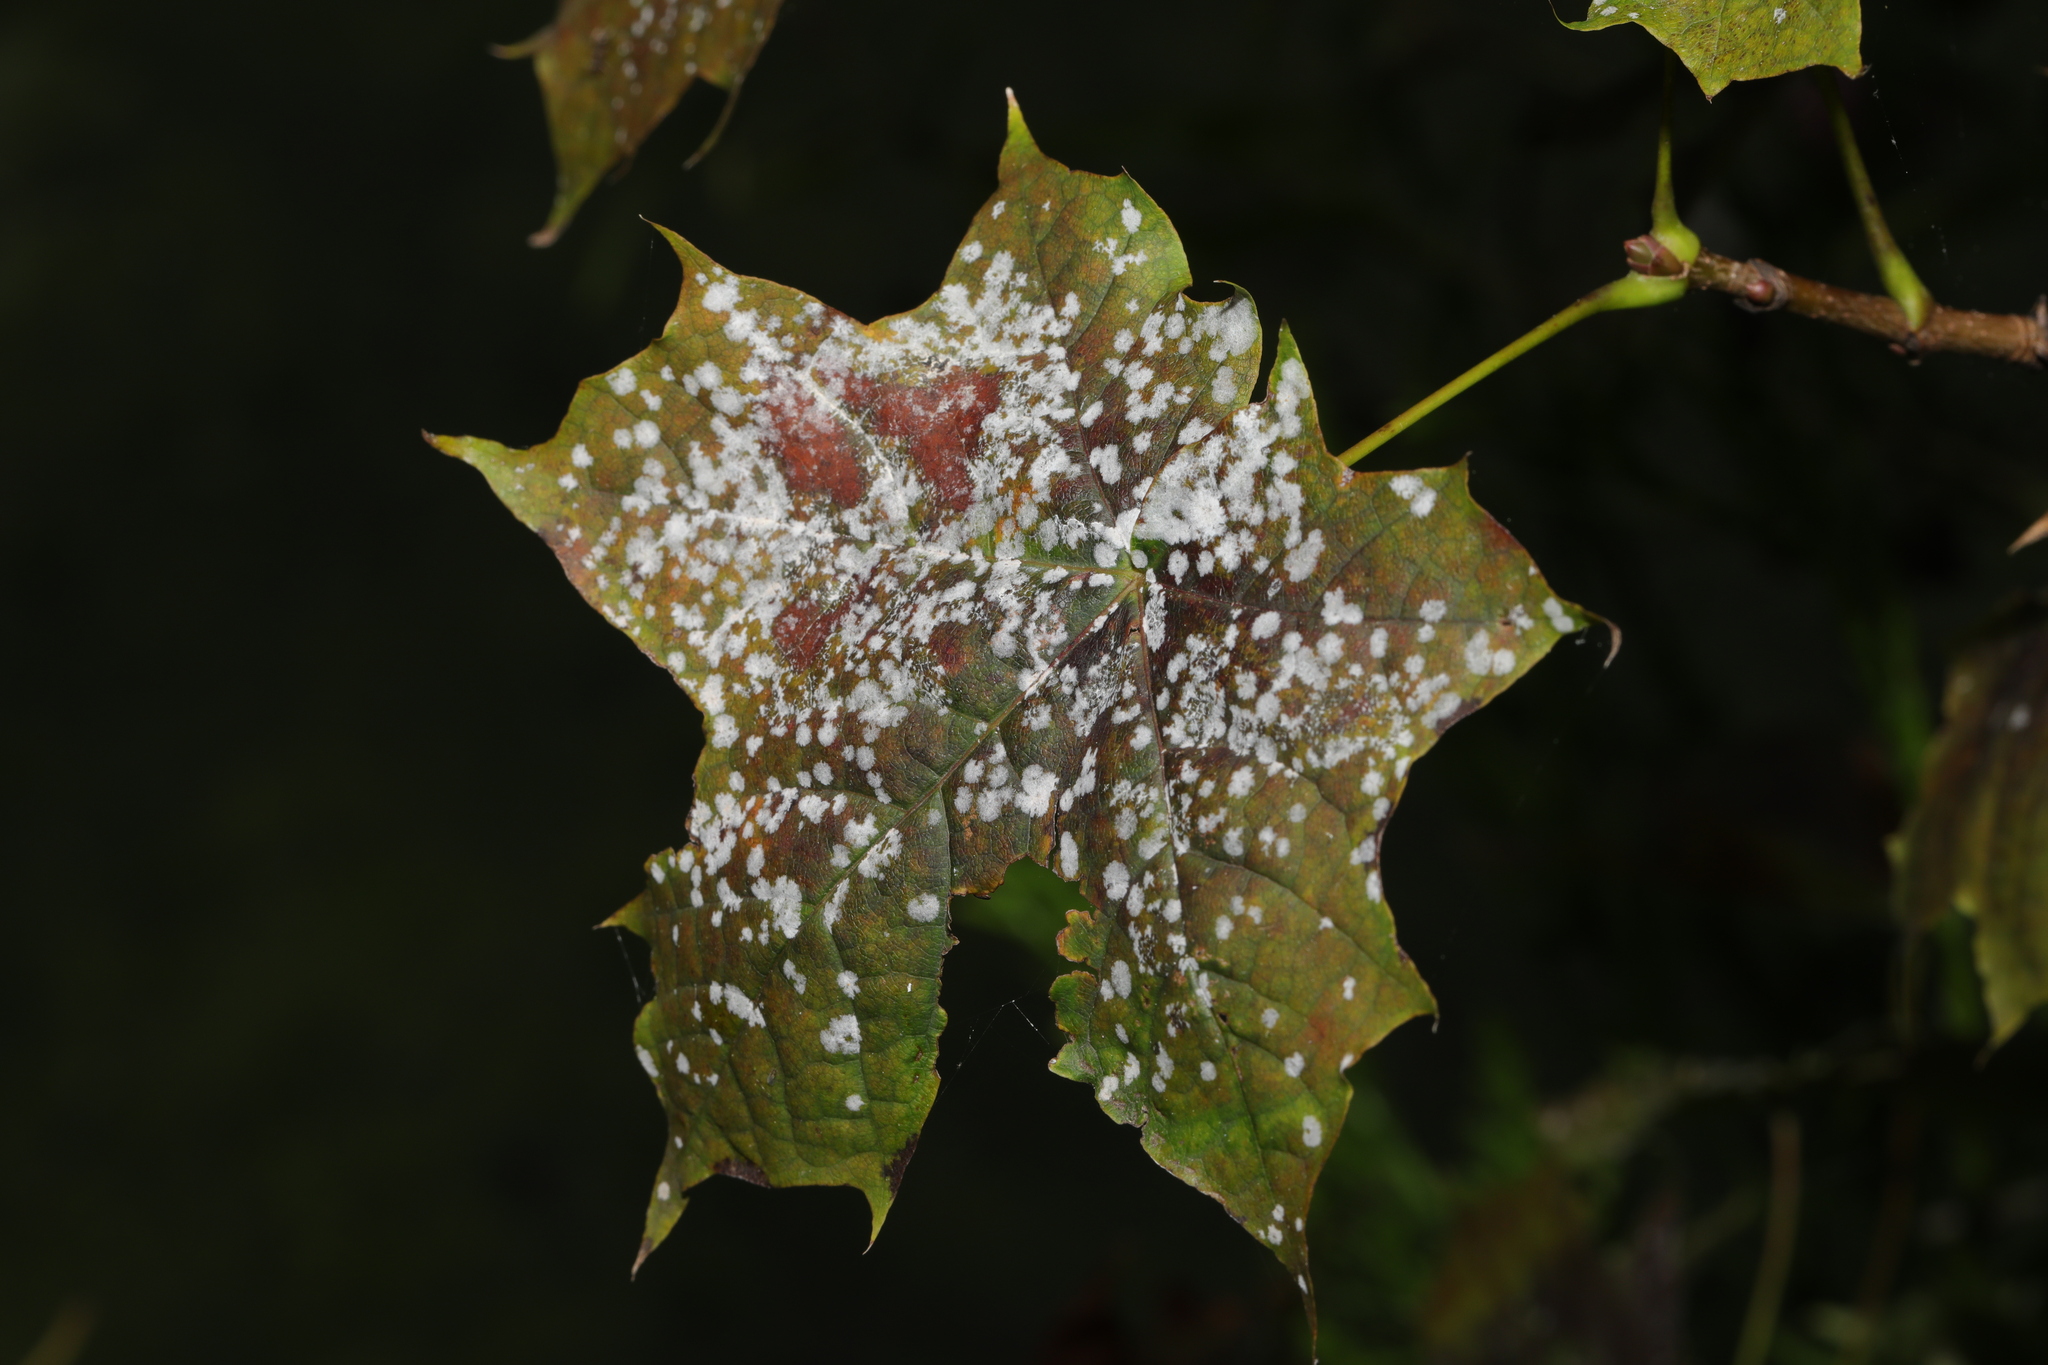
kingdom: Plantae
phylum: Tracheophyta
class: Magnoliopsida
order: Sapindales
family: Sapindaceae
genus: Acer
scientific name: Acer platanoides
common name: Norway maple
